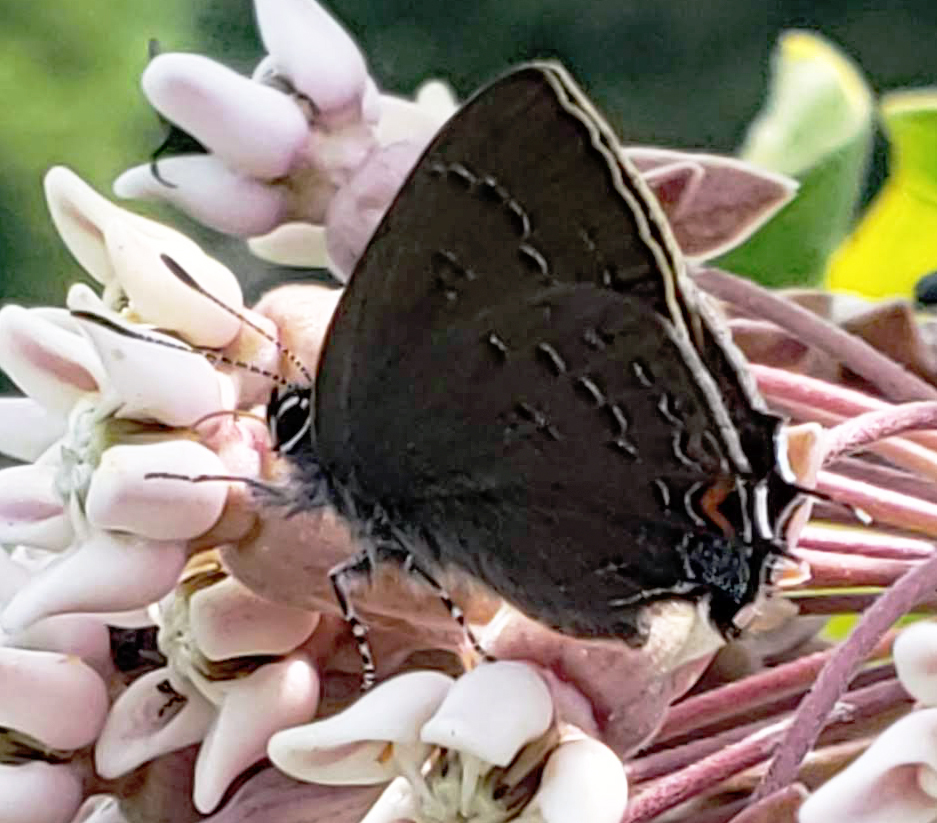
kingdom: Animalia
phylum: Arthropoda
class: Insecta
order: Lepidoptera
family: Lycaenidae
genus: Satyrium
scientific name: Satyrium calanus
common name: Banded hairstreak
